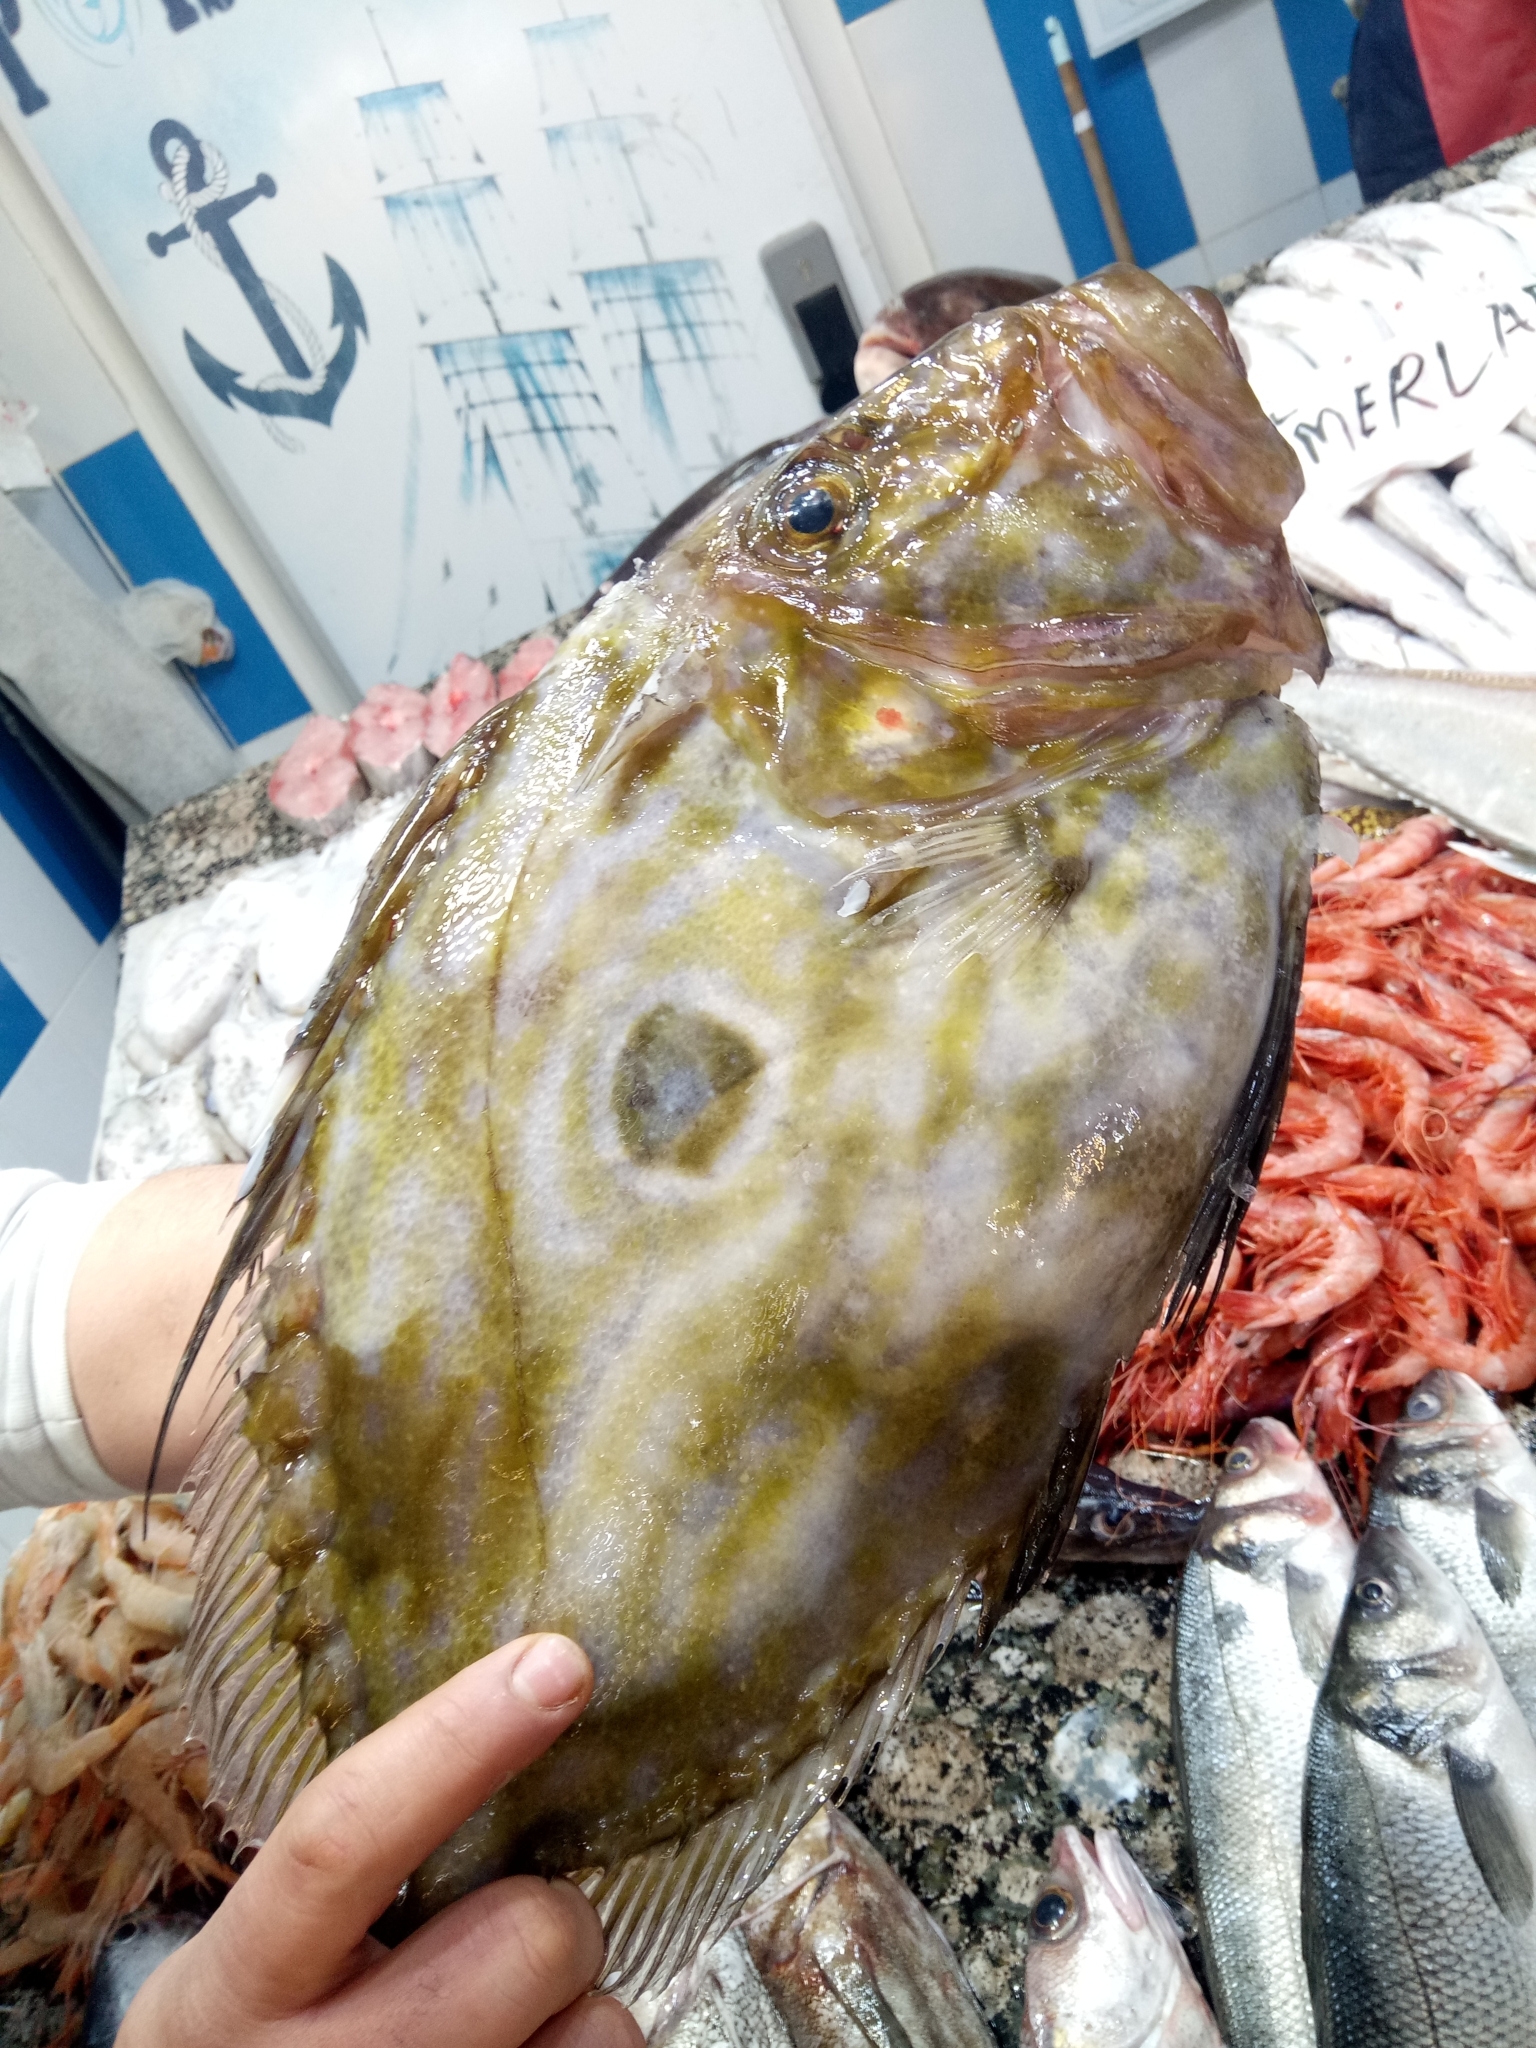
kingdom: Animalia
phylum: Chordata
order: Zeiformes
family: Zeidae
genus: Zeus
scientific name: Zeus faber
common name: John dory
